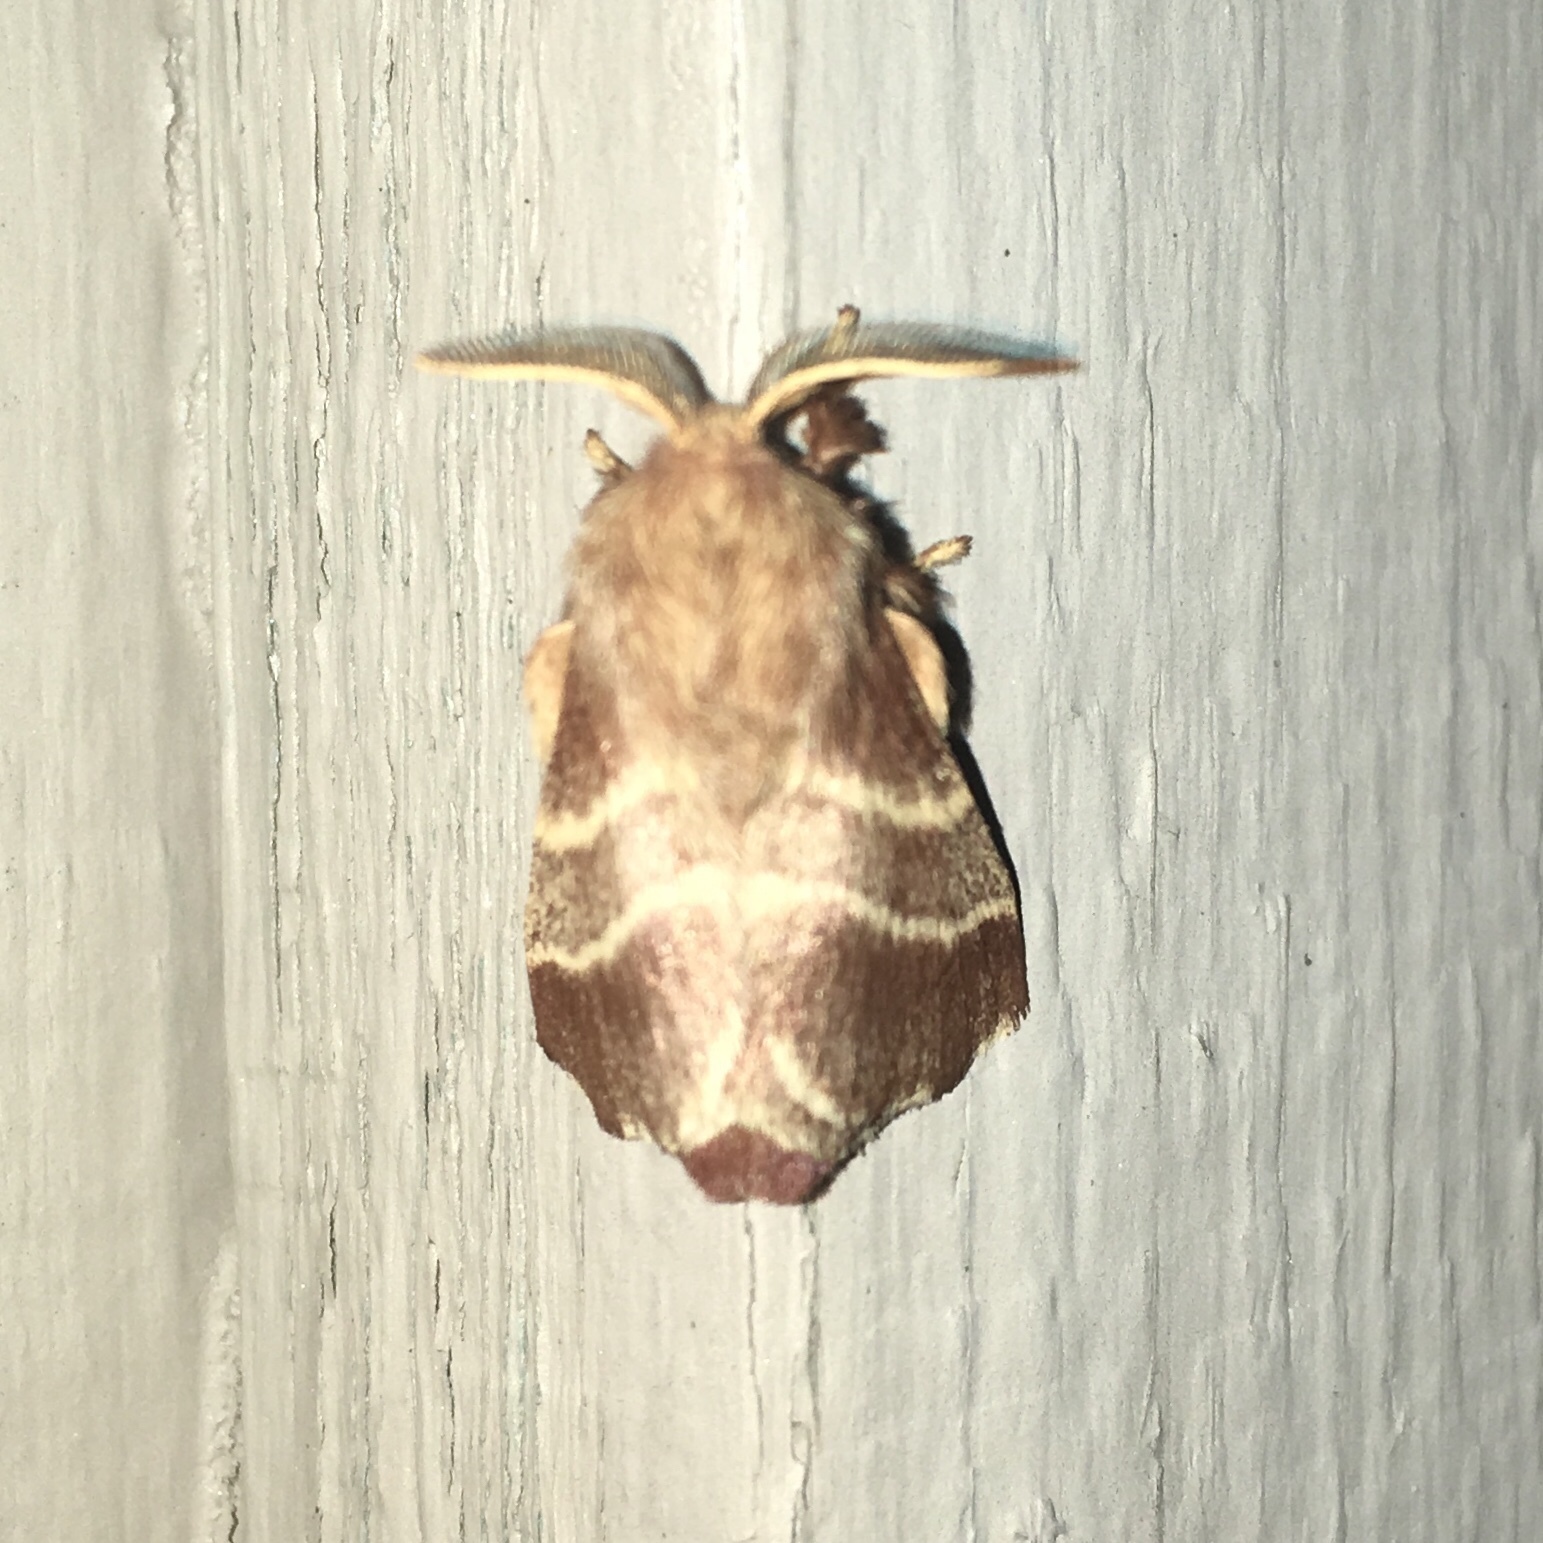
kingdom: Animalia
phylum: Arthropoda
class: Insecta
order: Lepidoptera
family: Lasiocampidae
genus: Malacosoma
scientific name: Malacosoma americana
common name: Eastern tent caterpillar moth
